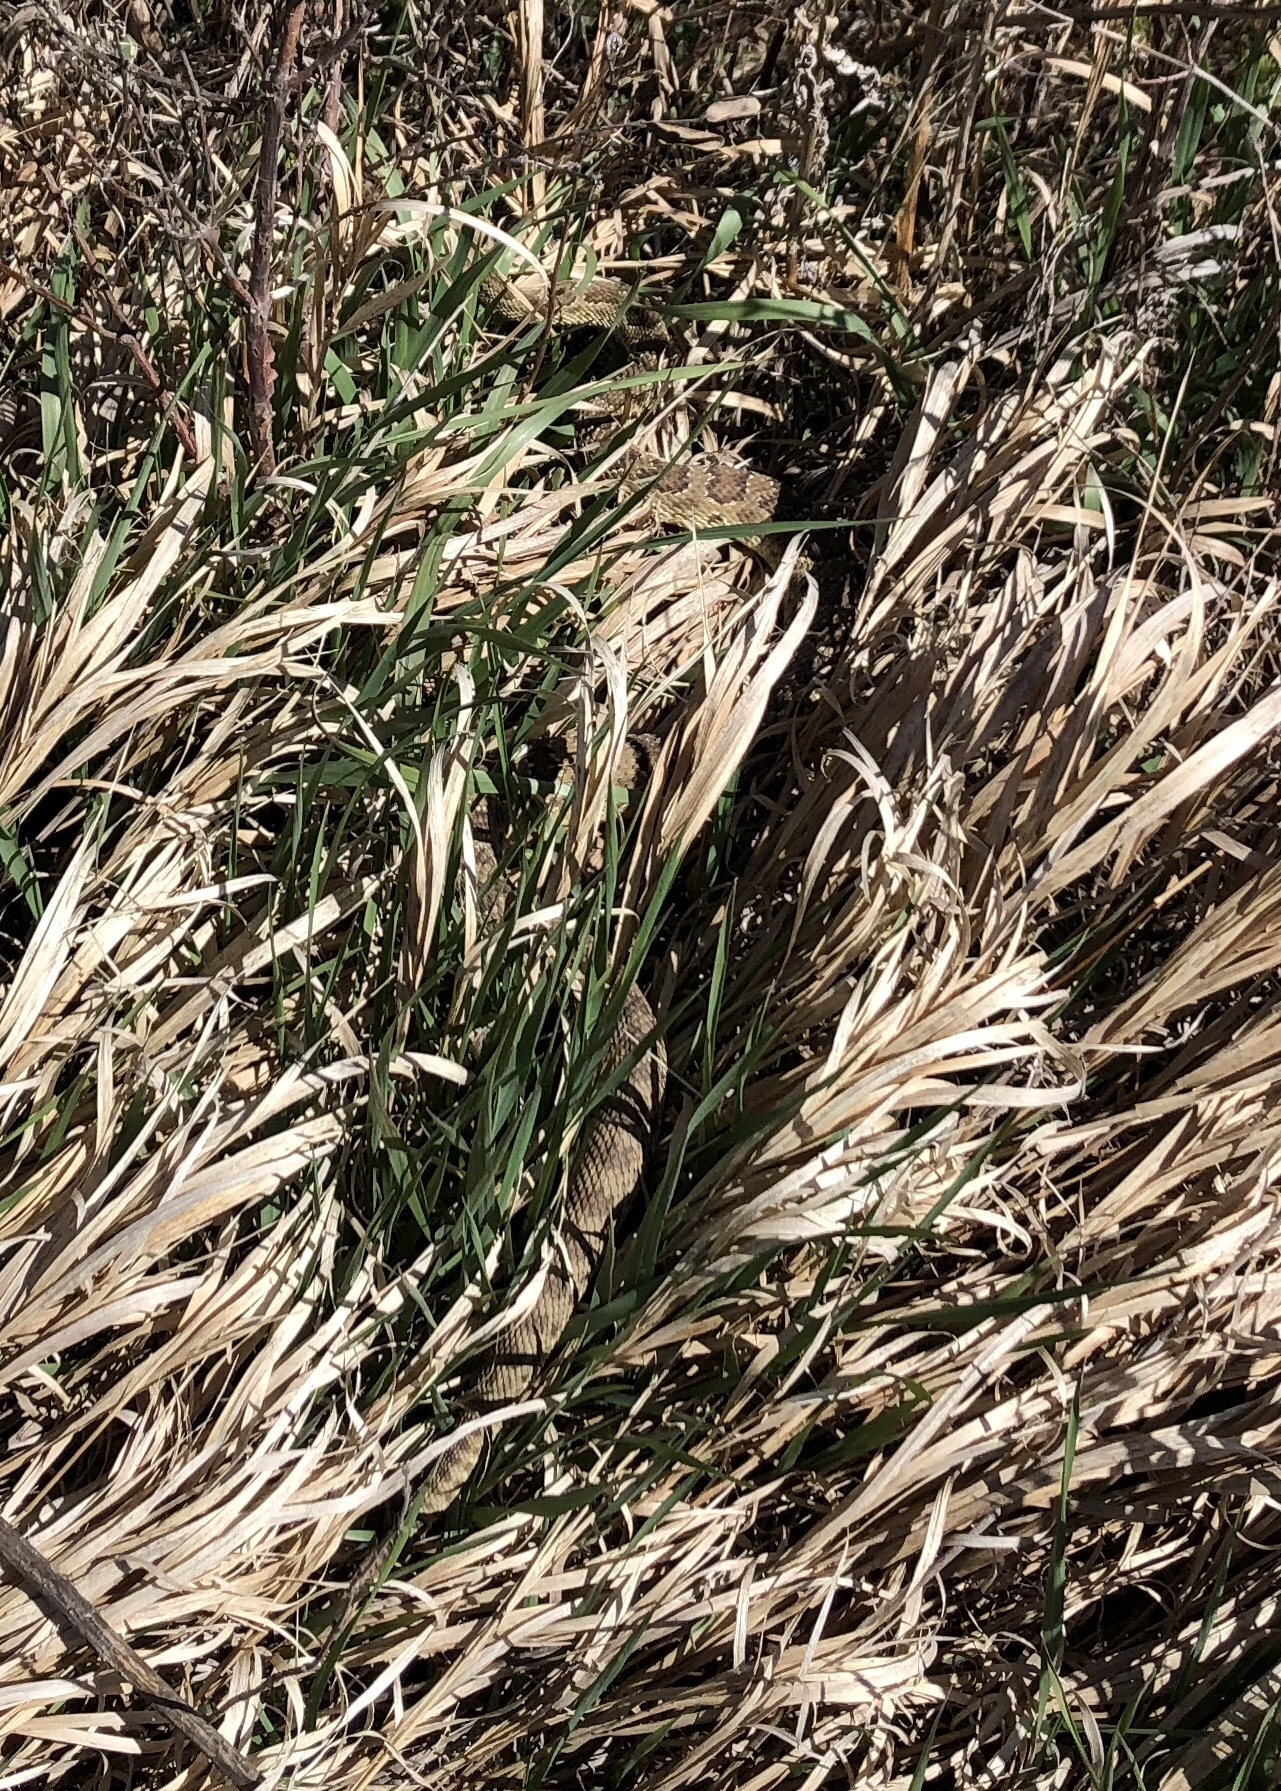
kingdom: Animalia
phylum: Chordata
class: Squamata
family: Viperidae
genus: Crotalus
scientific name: Crotalus viridis
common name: Prairie rattlesnake
